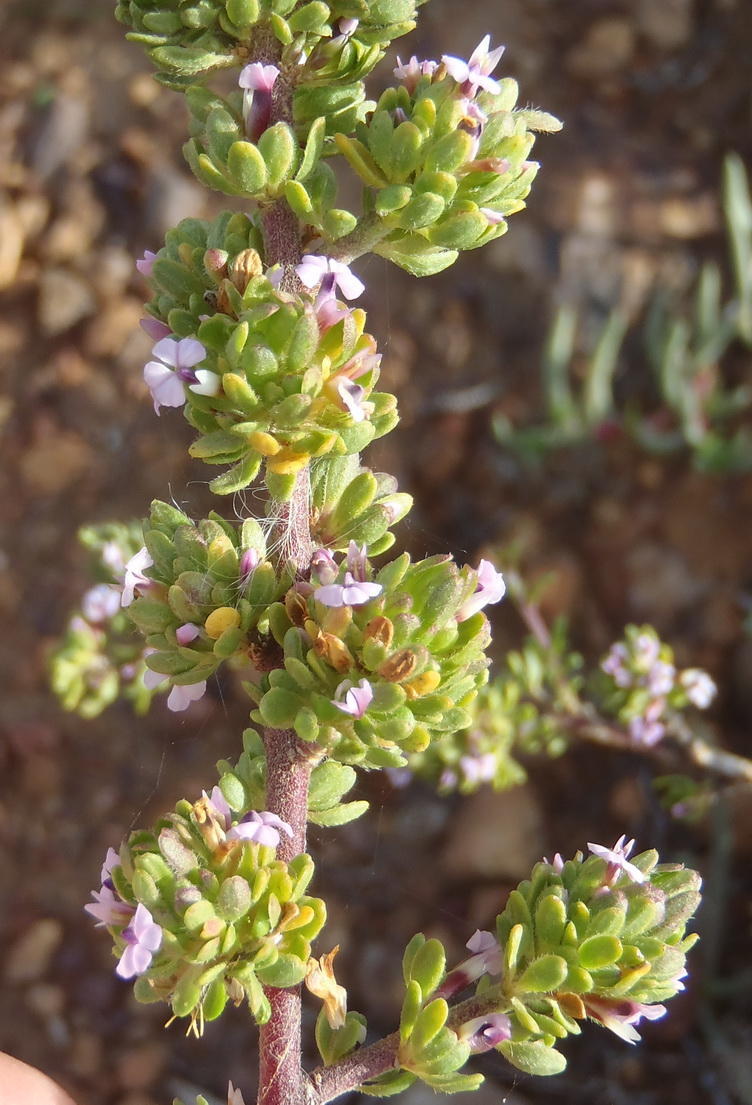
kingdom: Plantae
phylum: Tracheophyta
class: Magnoliopsida
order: Fabales
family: Polygalaceae
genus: Muraltia
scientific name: Muraltia rhamnoides
